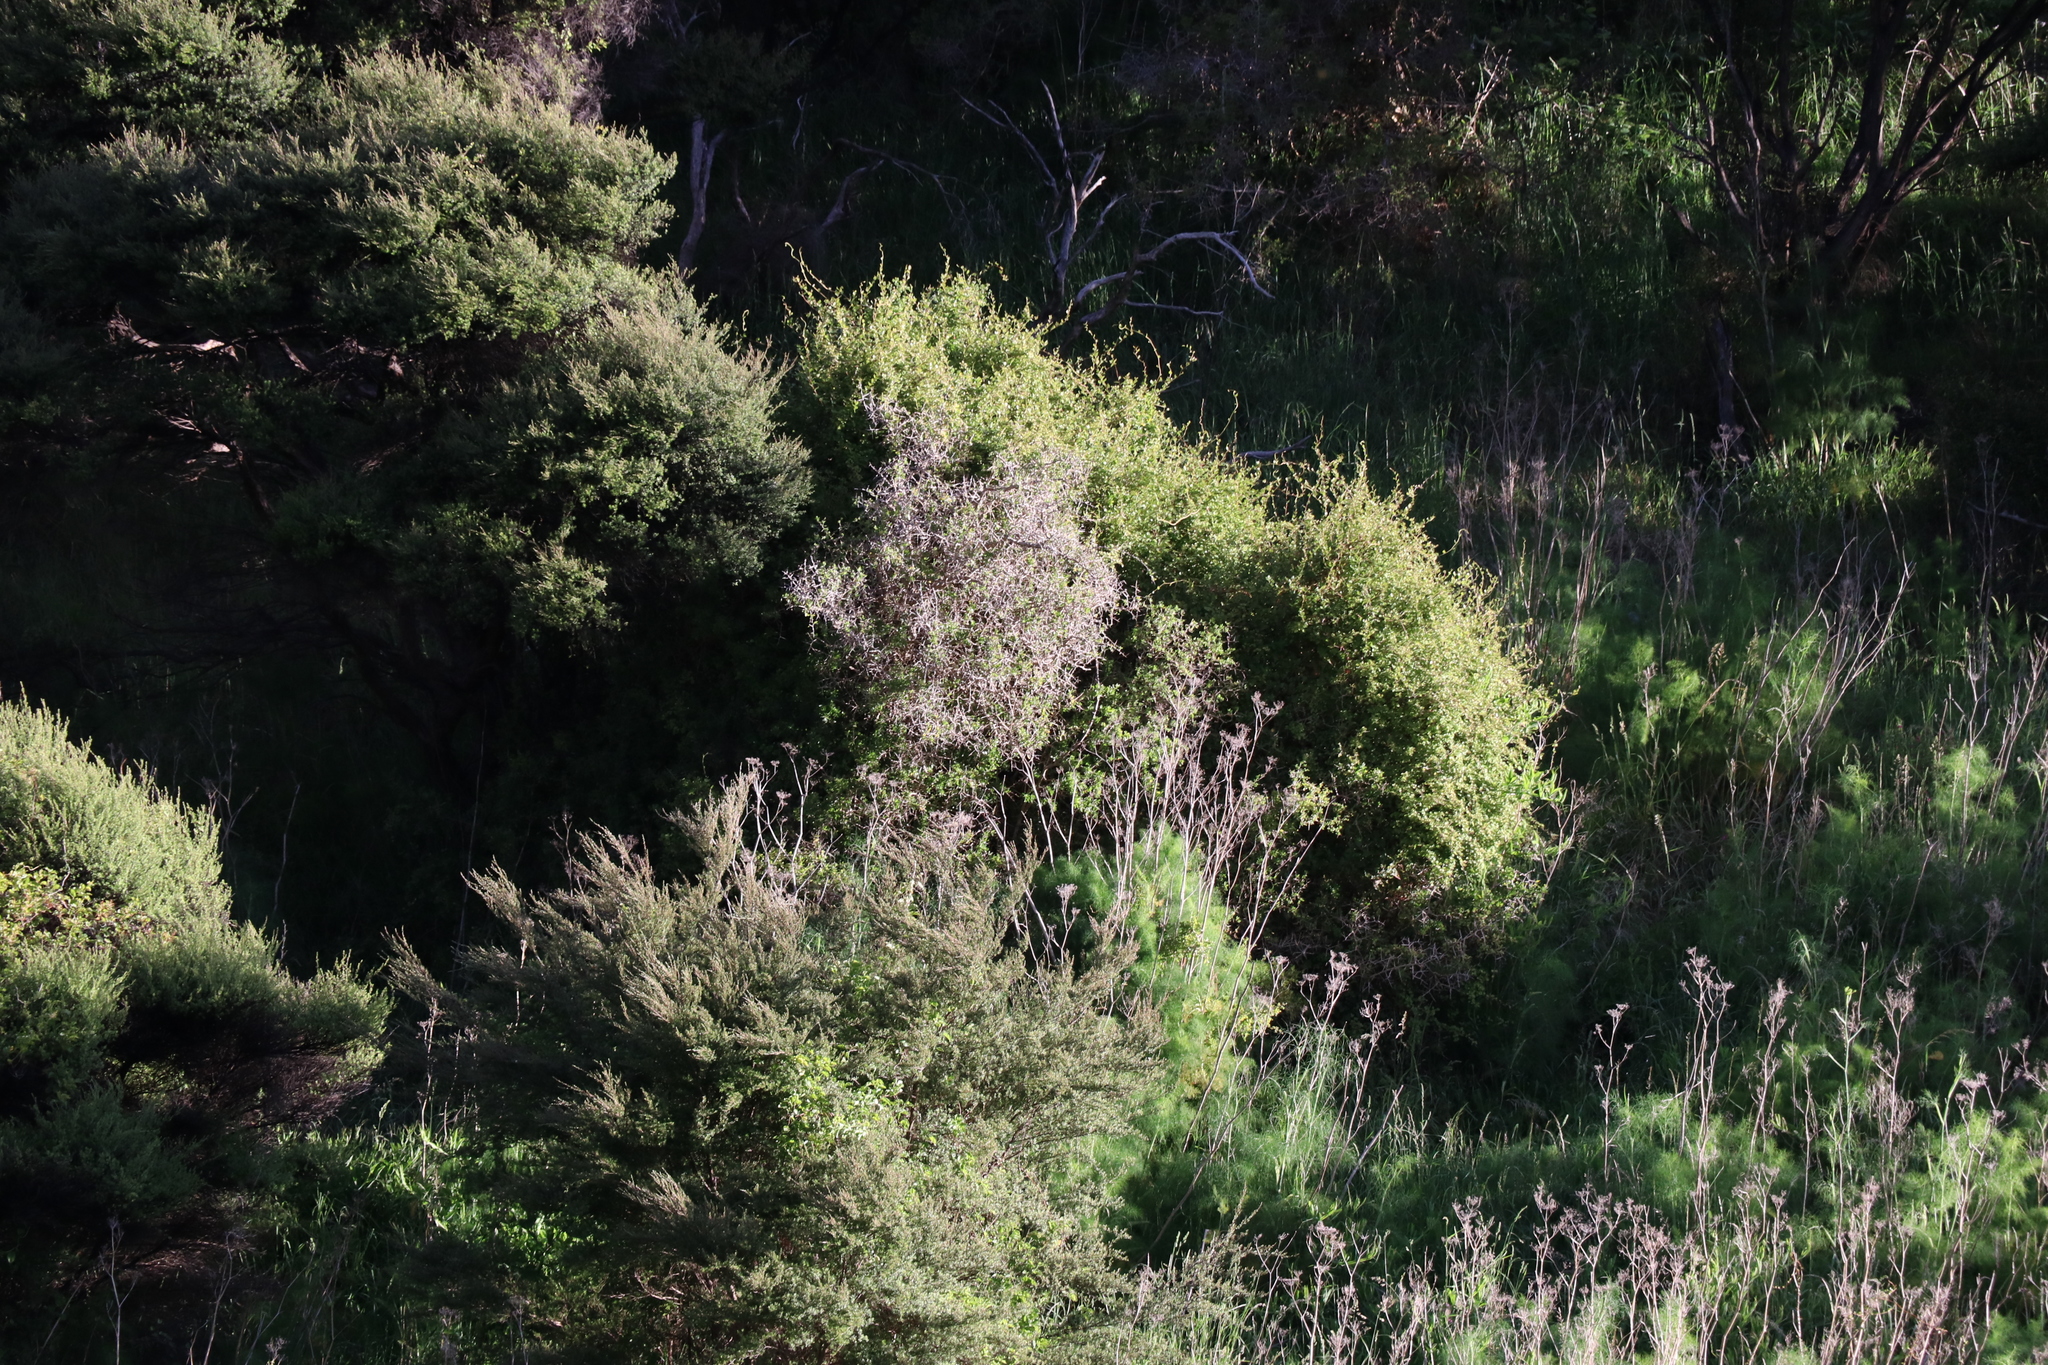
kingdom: Plantae
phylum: Tracheophyta
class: Magnoliopsida
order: Solanales
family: Solanaceae
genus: Lycium
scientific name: Lycium ferocissimum
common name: African boxthorn
